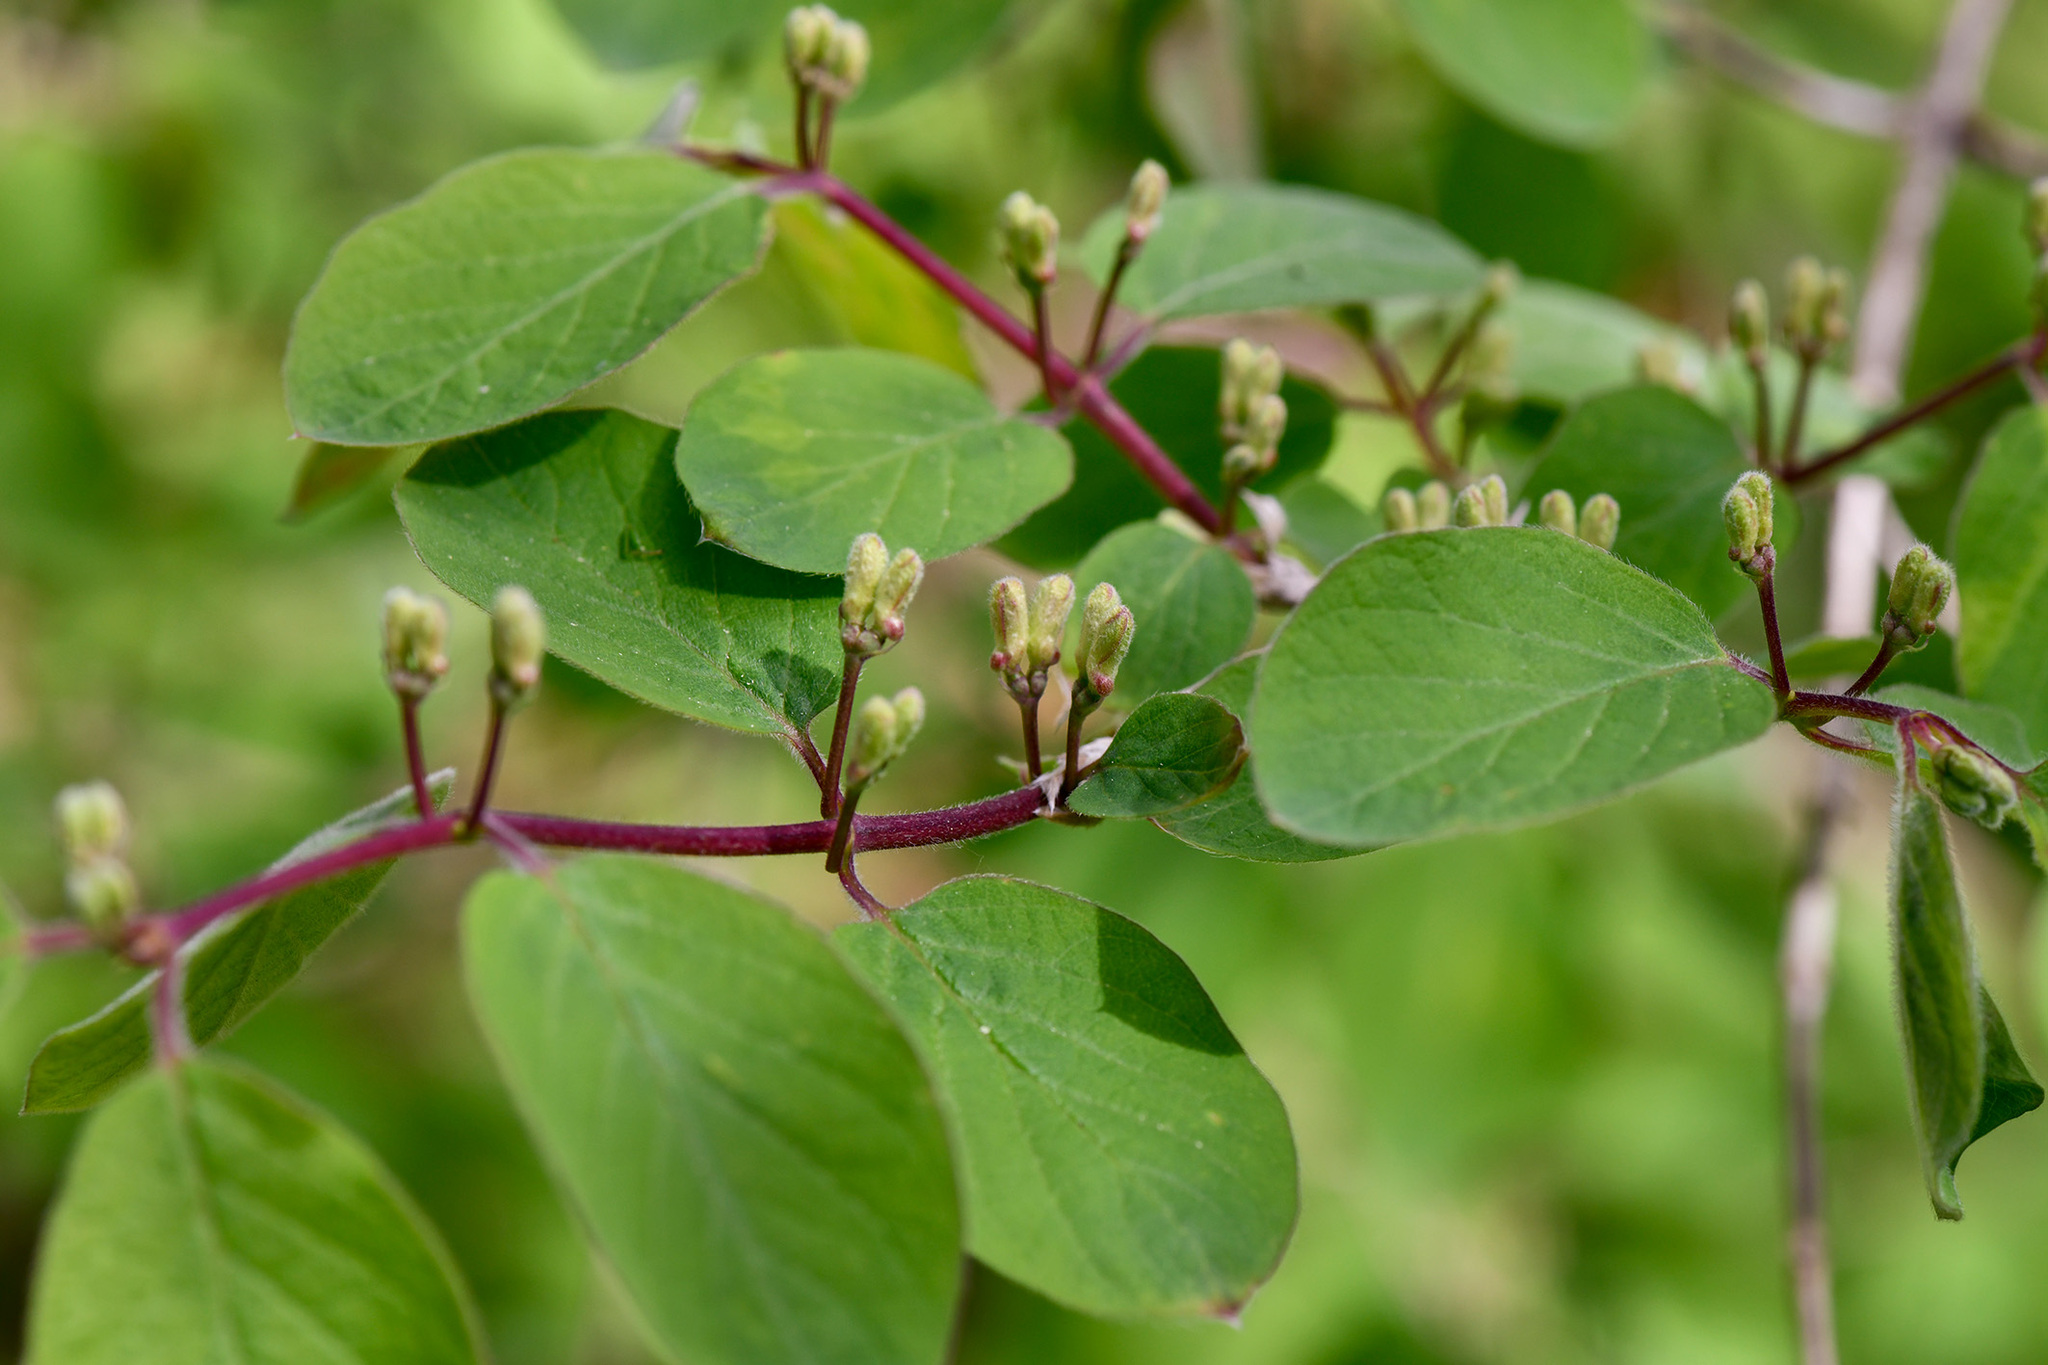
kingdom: Plantae
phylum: Tracheophyta
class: Magnoliopsida
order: Dipsacales
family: Caprifoliaceae
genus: Lonicera
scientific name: Lonicera xylosteum
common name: Fly honeysuckle
